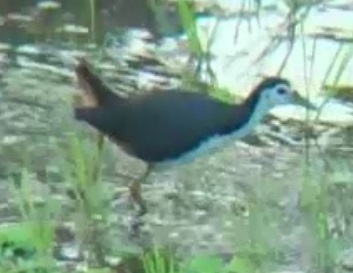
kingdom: Animalia
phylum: Chordata
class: Aves
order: Gruiformes
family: Rallidae
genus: Amaurornis
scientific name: Amaurornis phoenicurus
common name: White-breasted waterhen
